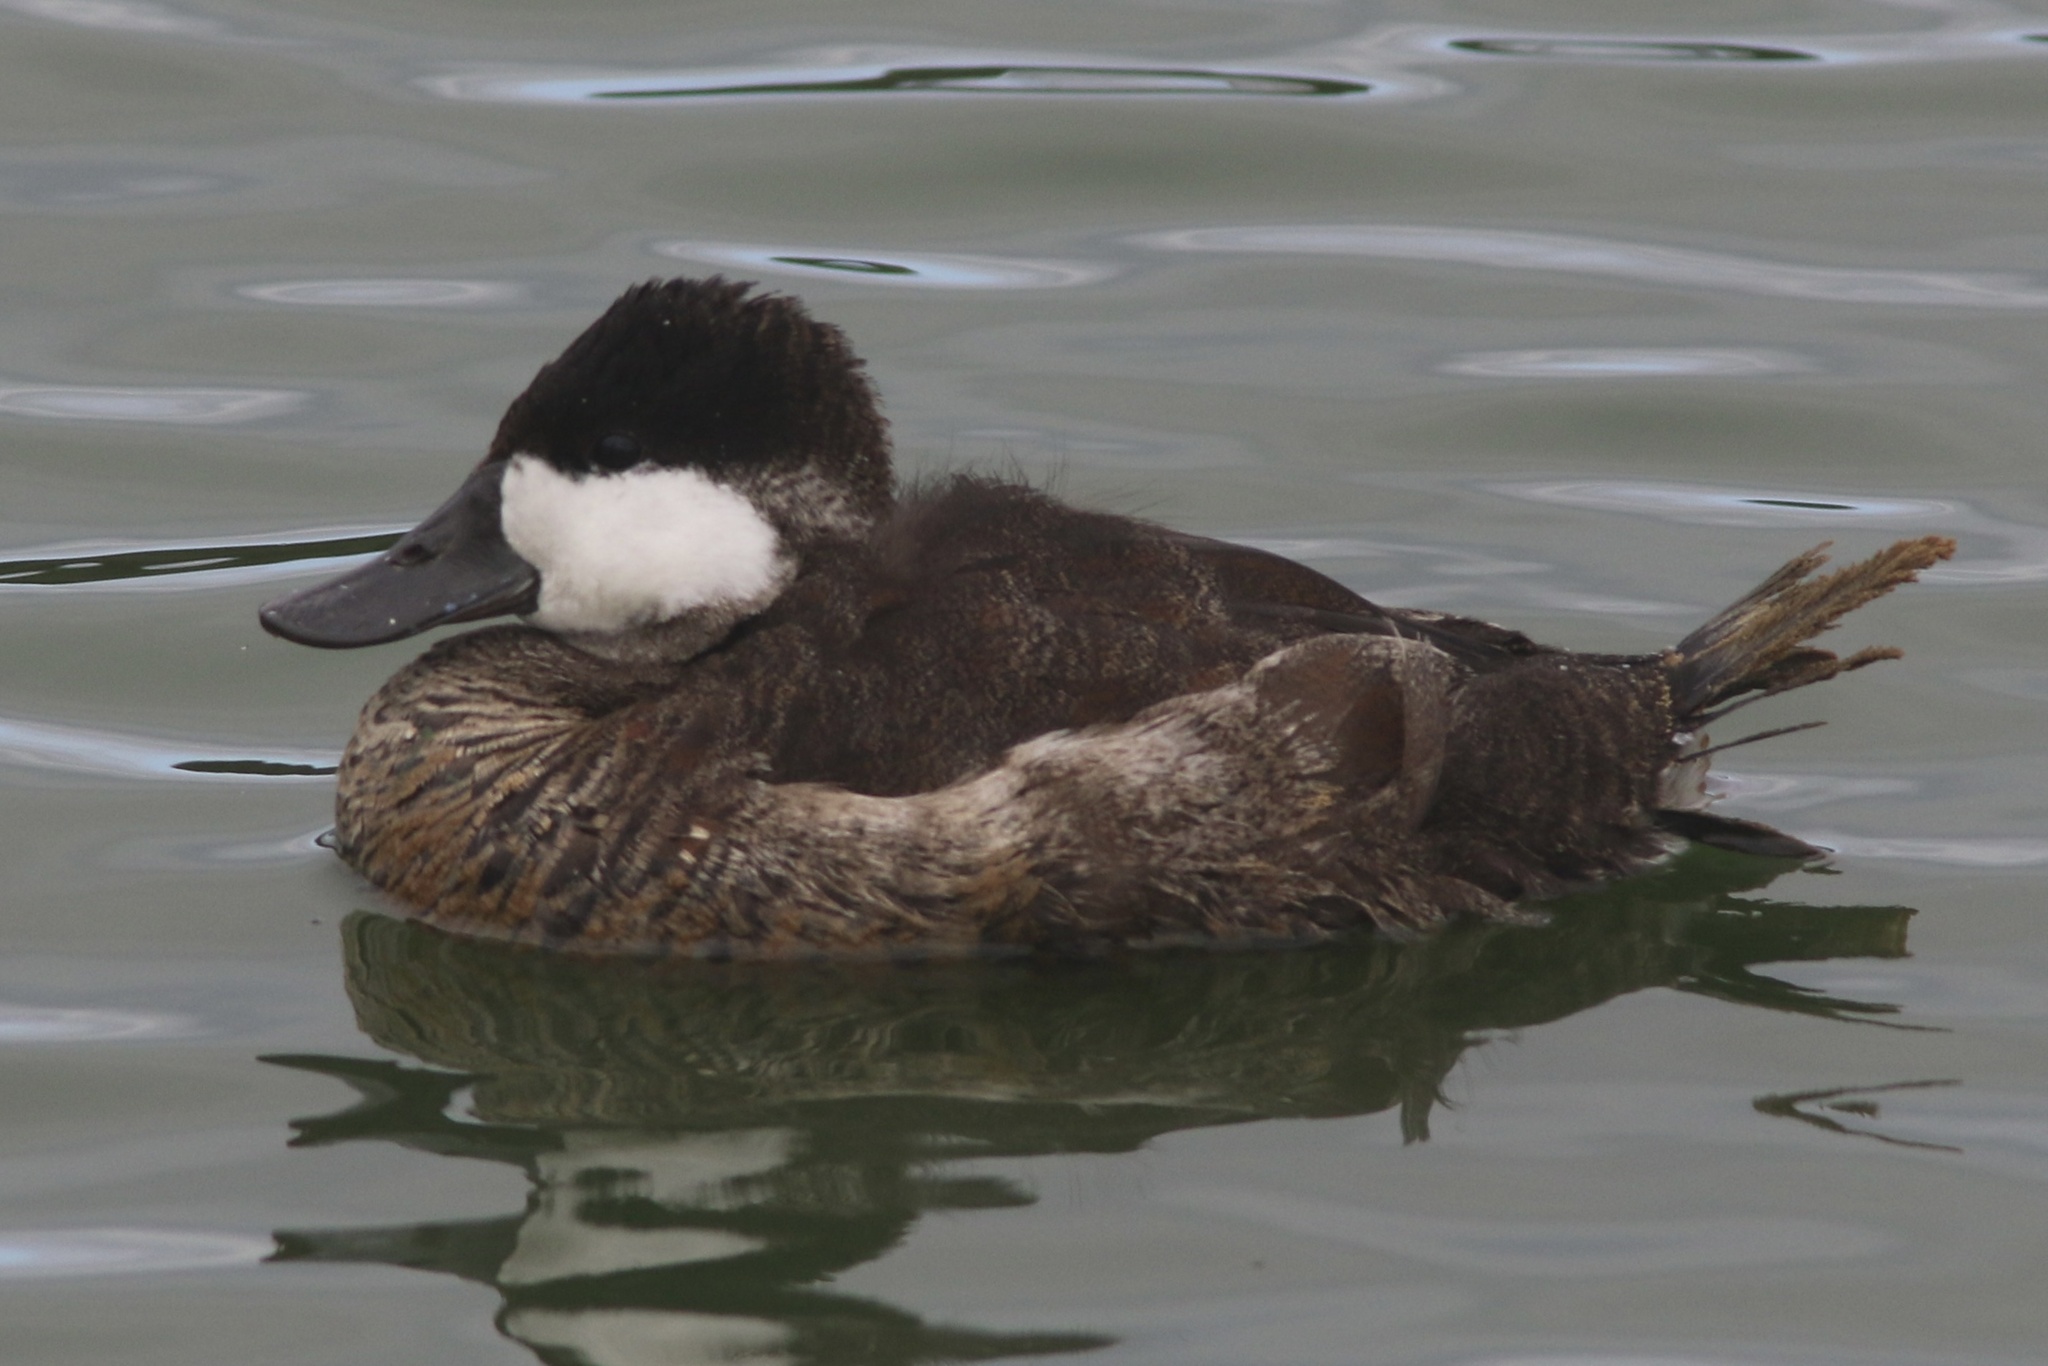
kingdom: Animalia
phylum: Chordata
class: Aves
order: Anseriformes
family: Anatidae
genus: Oxyura
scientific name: Oxyura jamaicensis
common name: Ruddy duck
